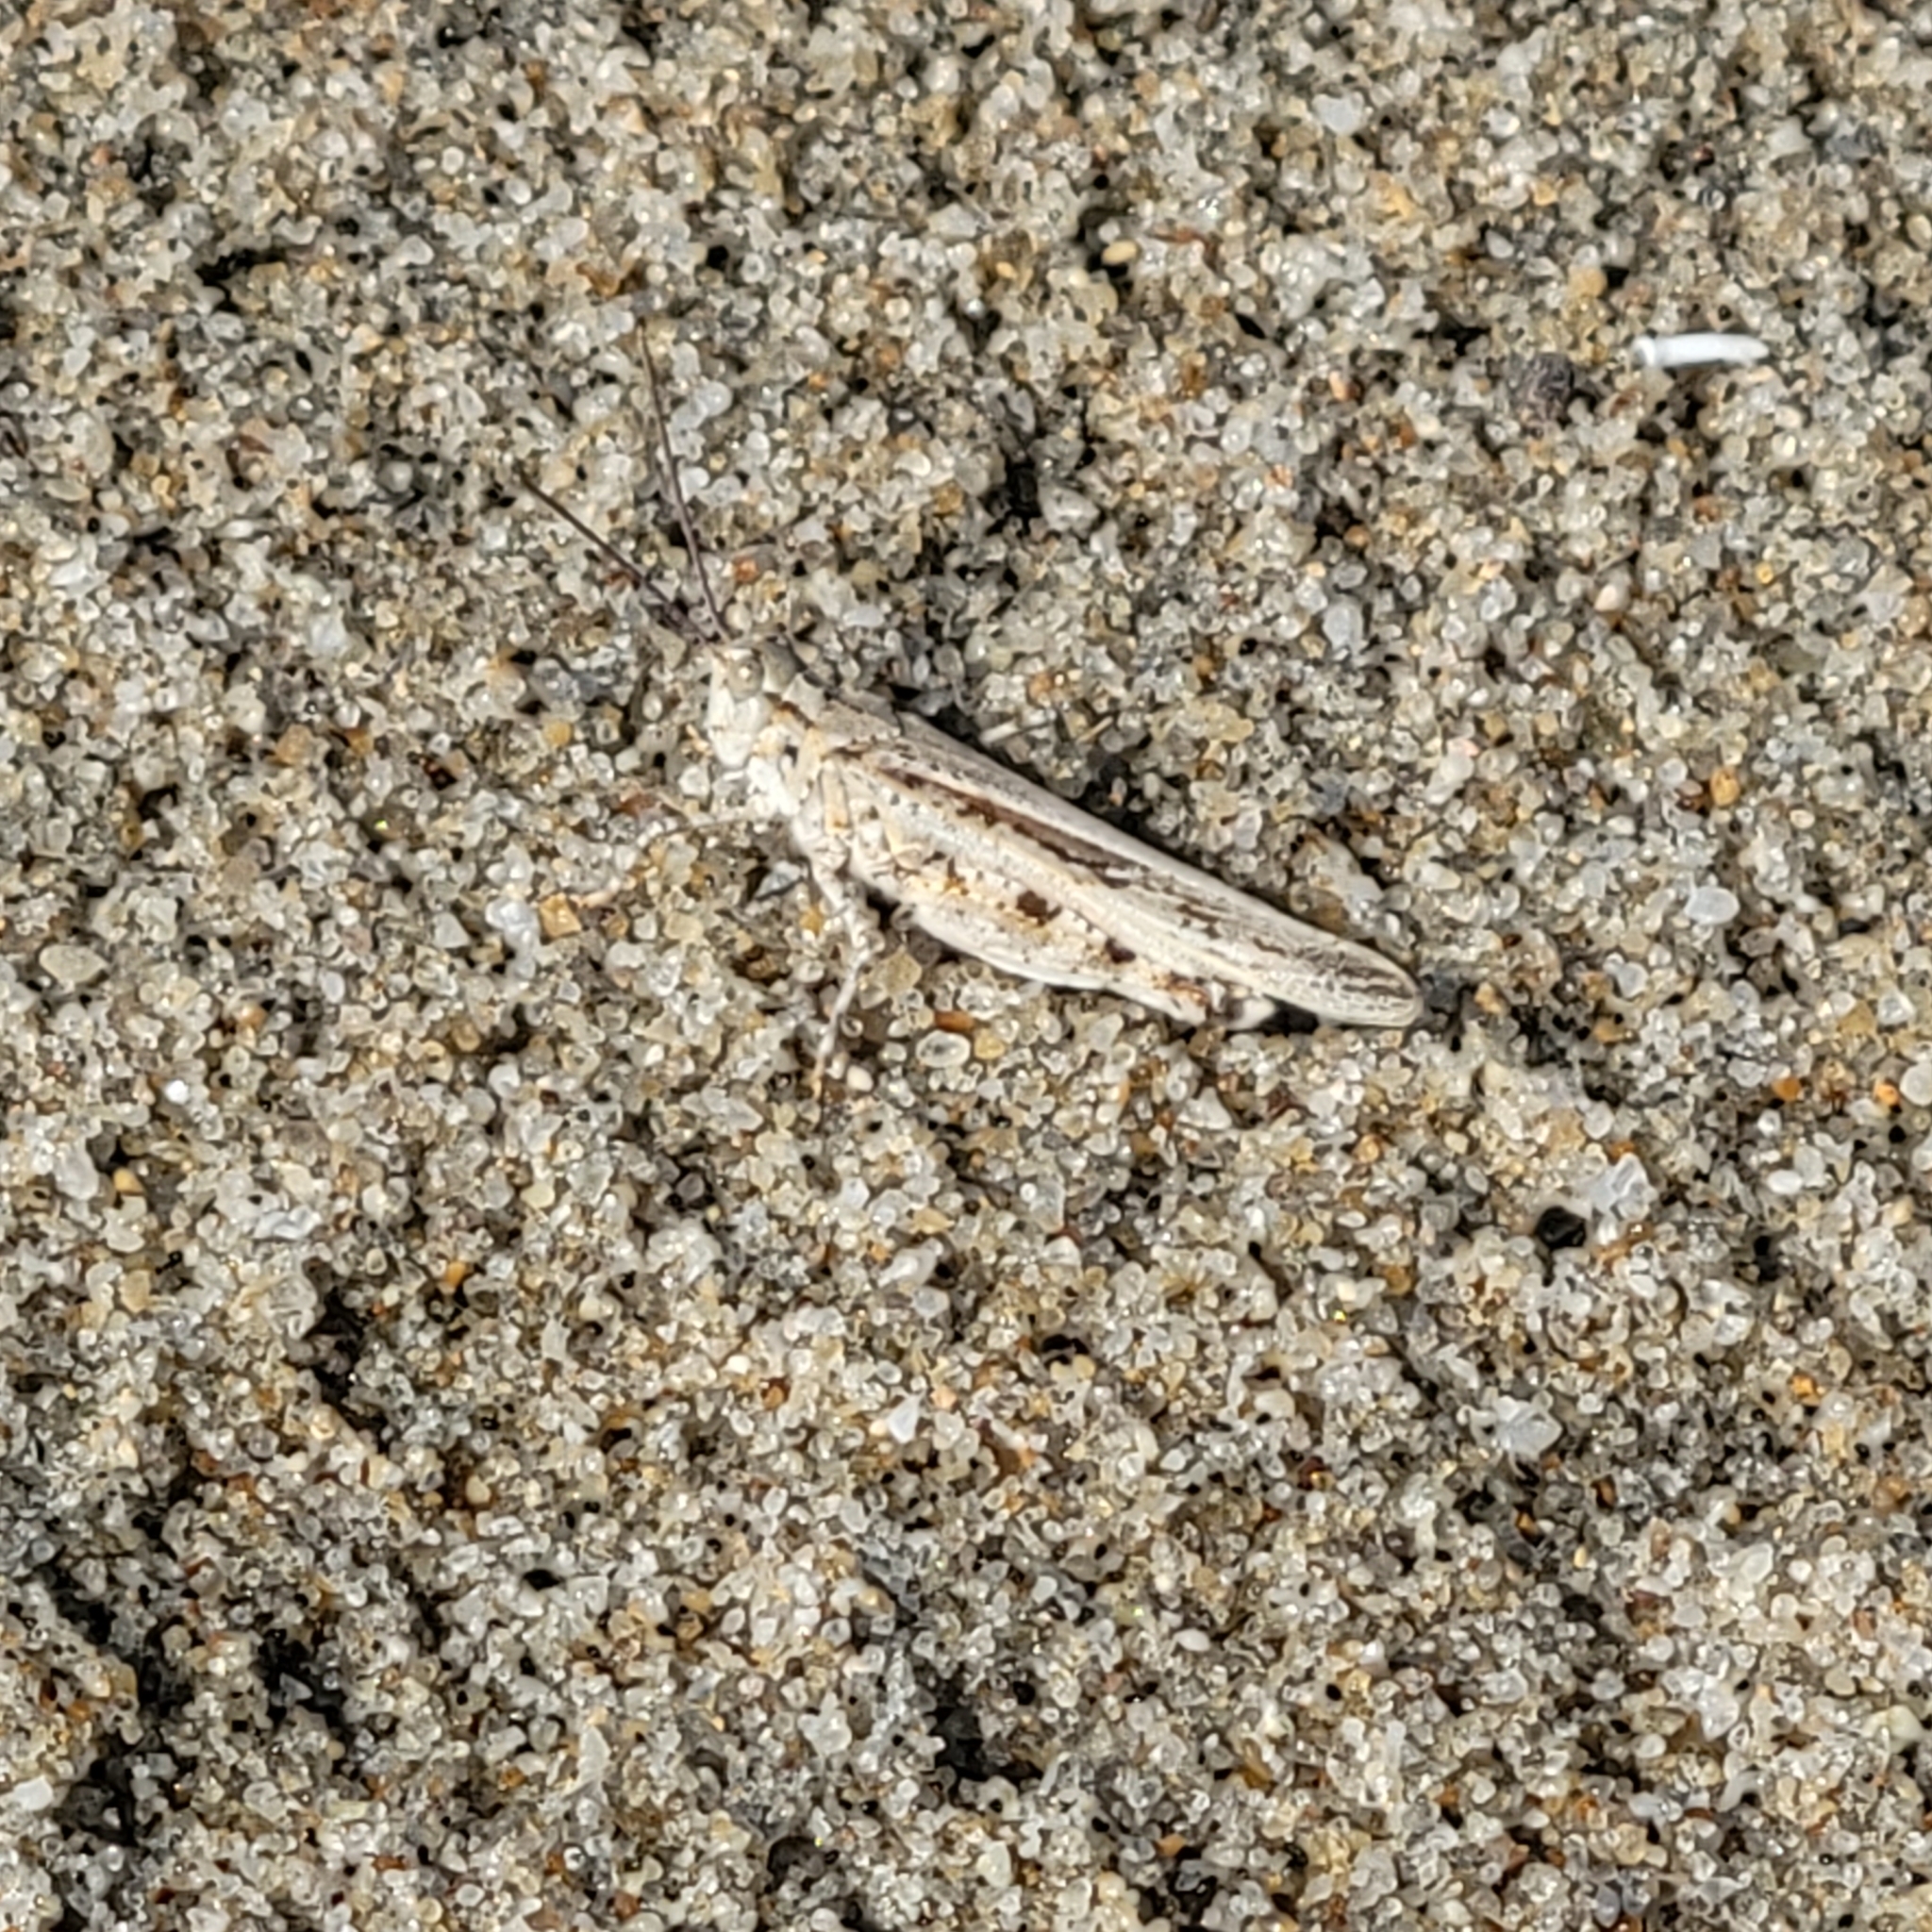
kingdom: Animalia
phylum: Arthropoda
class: Insecta
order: Orthoptera
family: Acrididae
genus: Trimerotropis
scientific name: Trimerotropis maritima
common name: Seaside locust
